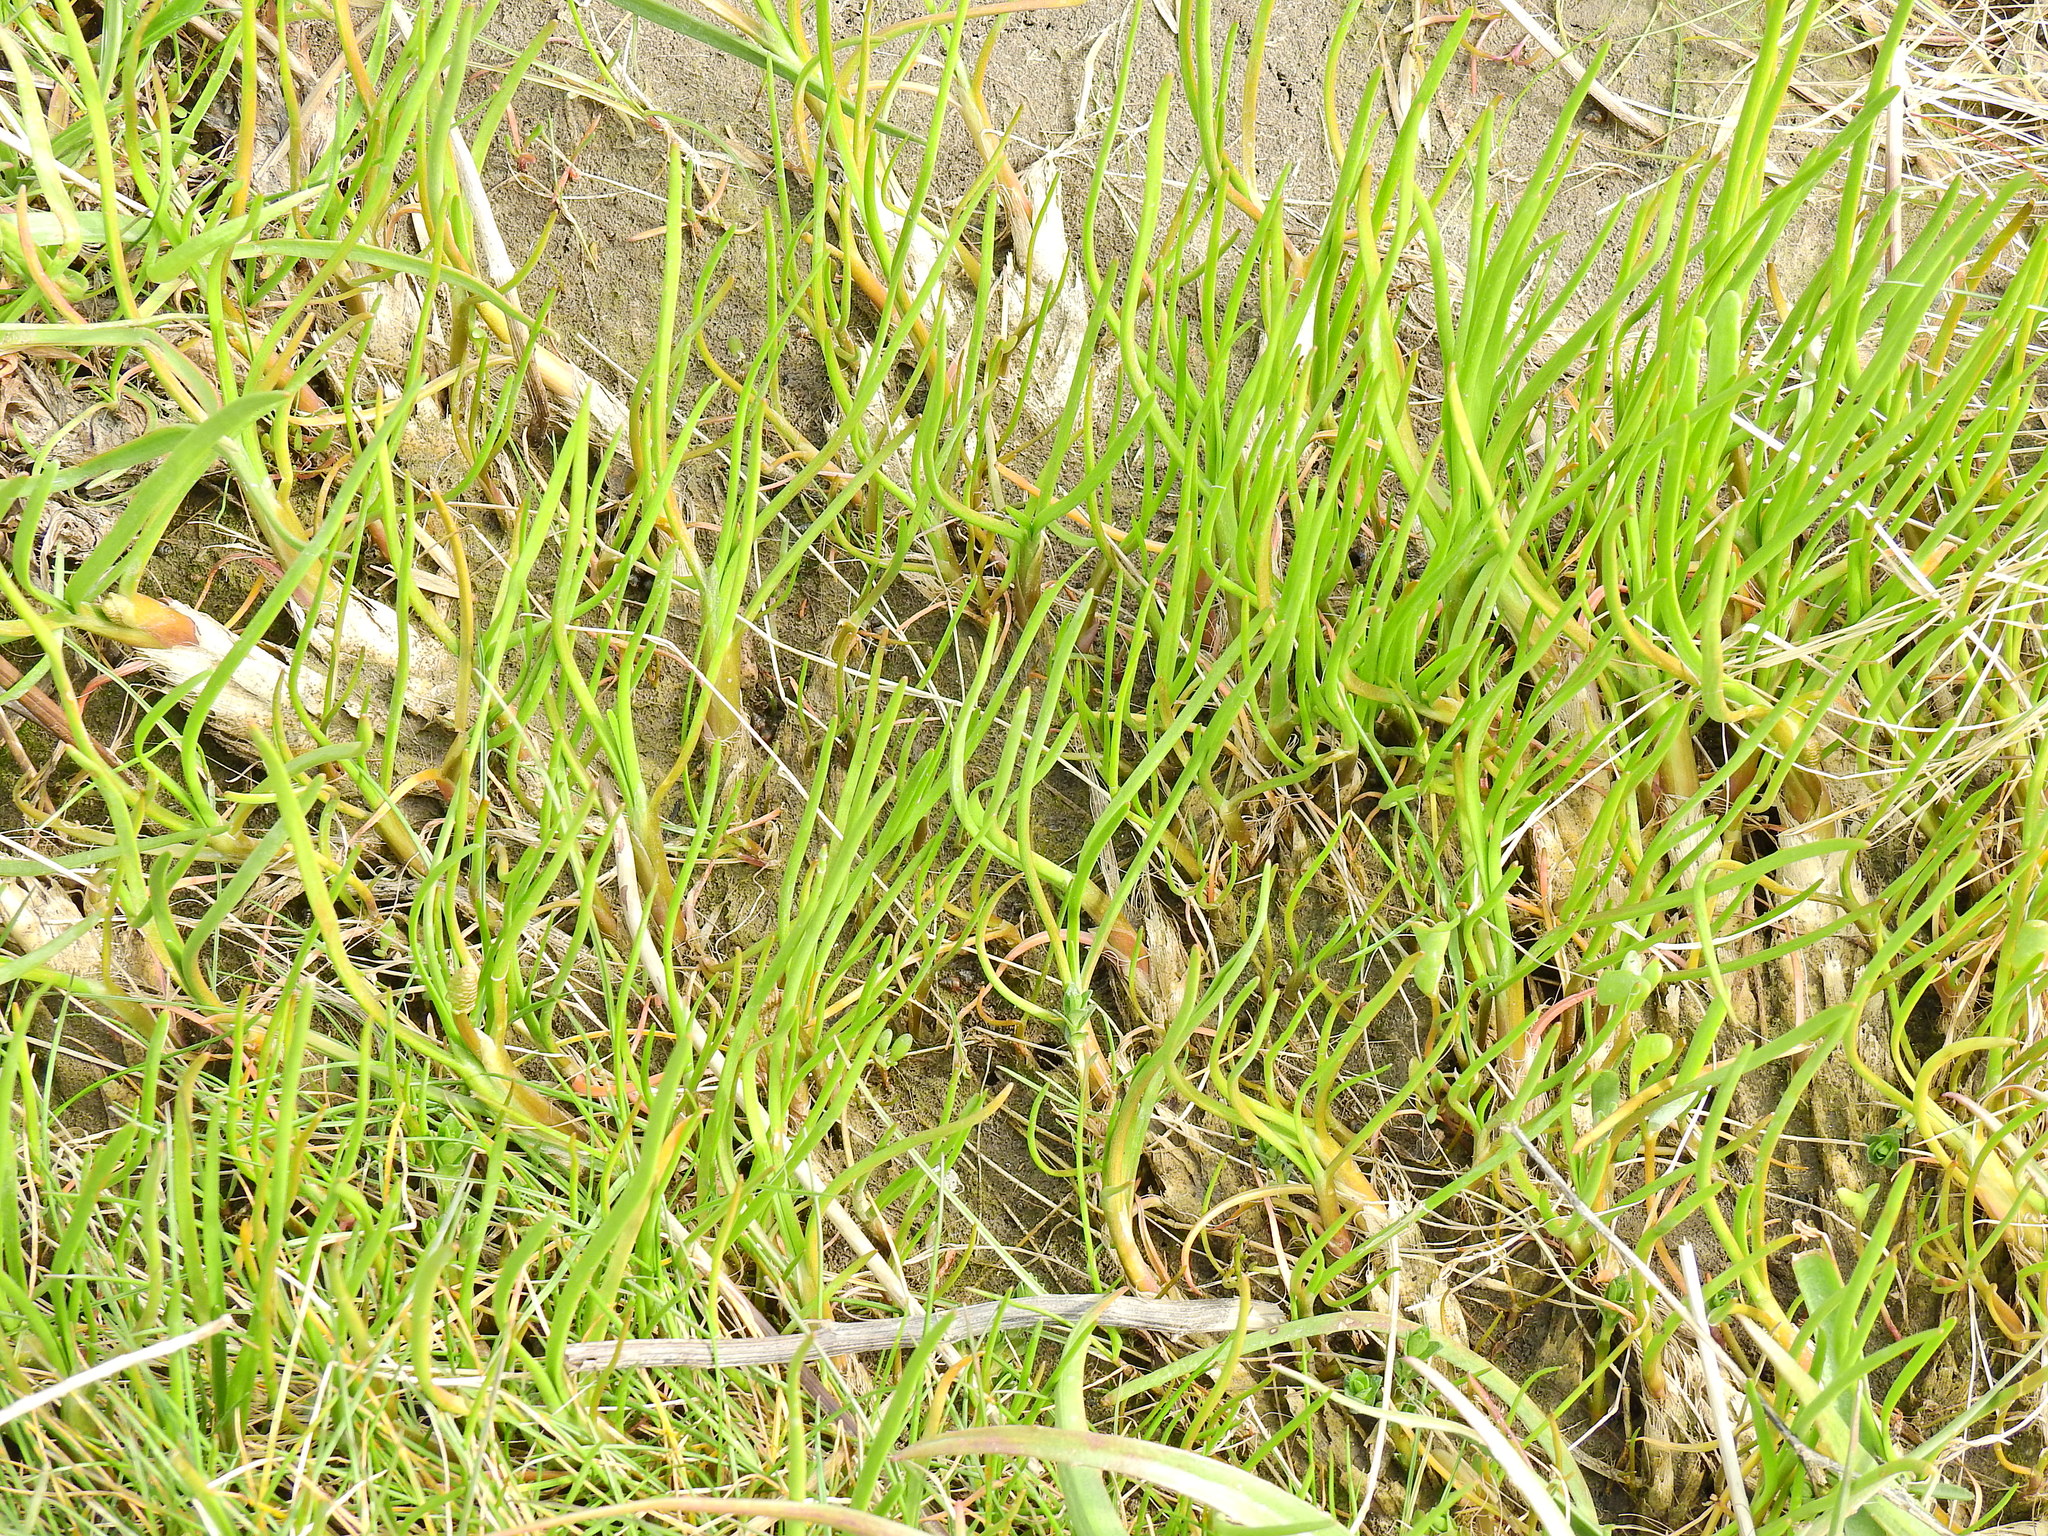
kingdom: Plantae
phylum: Tracheophyta
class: Liliopsida
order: Alismatales
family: Juncaginaceae
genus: Triglochin
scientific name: Triglochin maritima
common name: Sea arrowgrass
